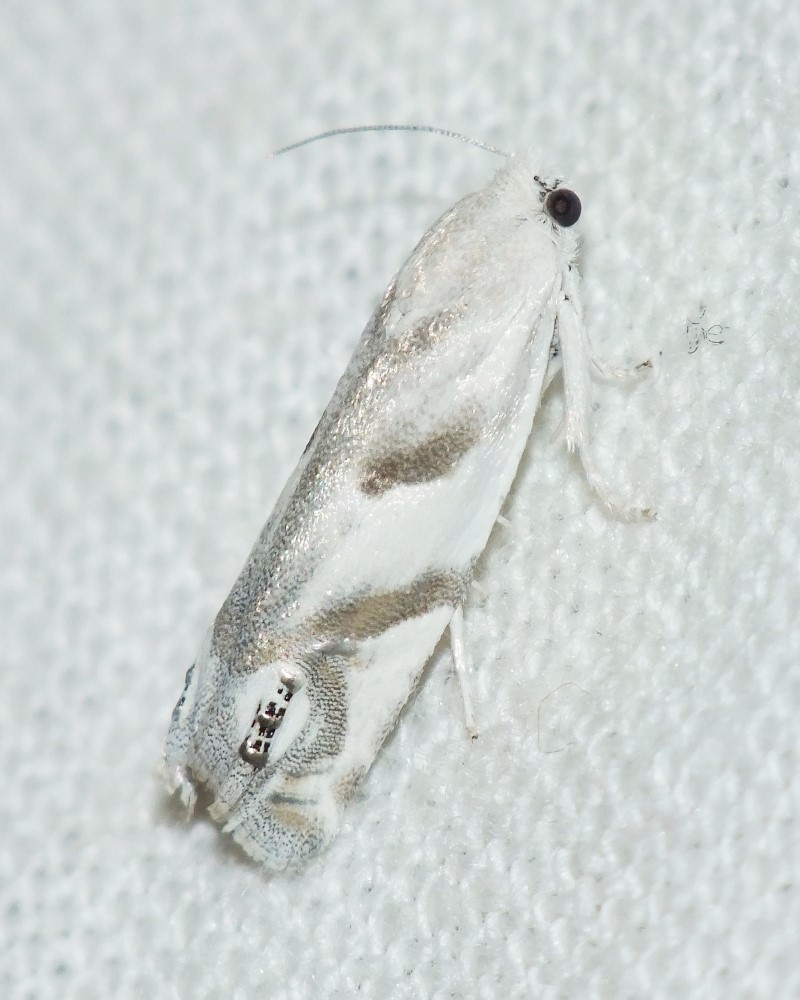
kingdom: Animalia
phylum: Arthropoda
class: Insecta
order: Lepidoptera
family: Tortricidae
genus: Eucosma
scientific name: Eucosma pupillana
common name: Eyed bell
